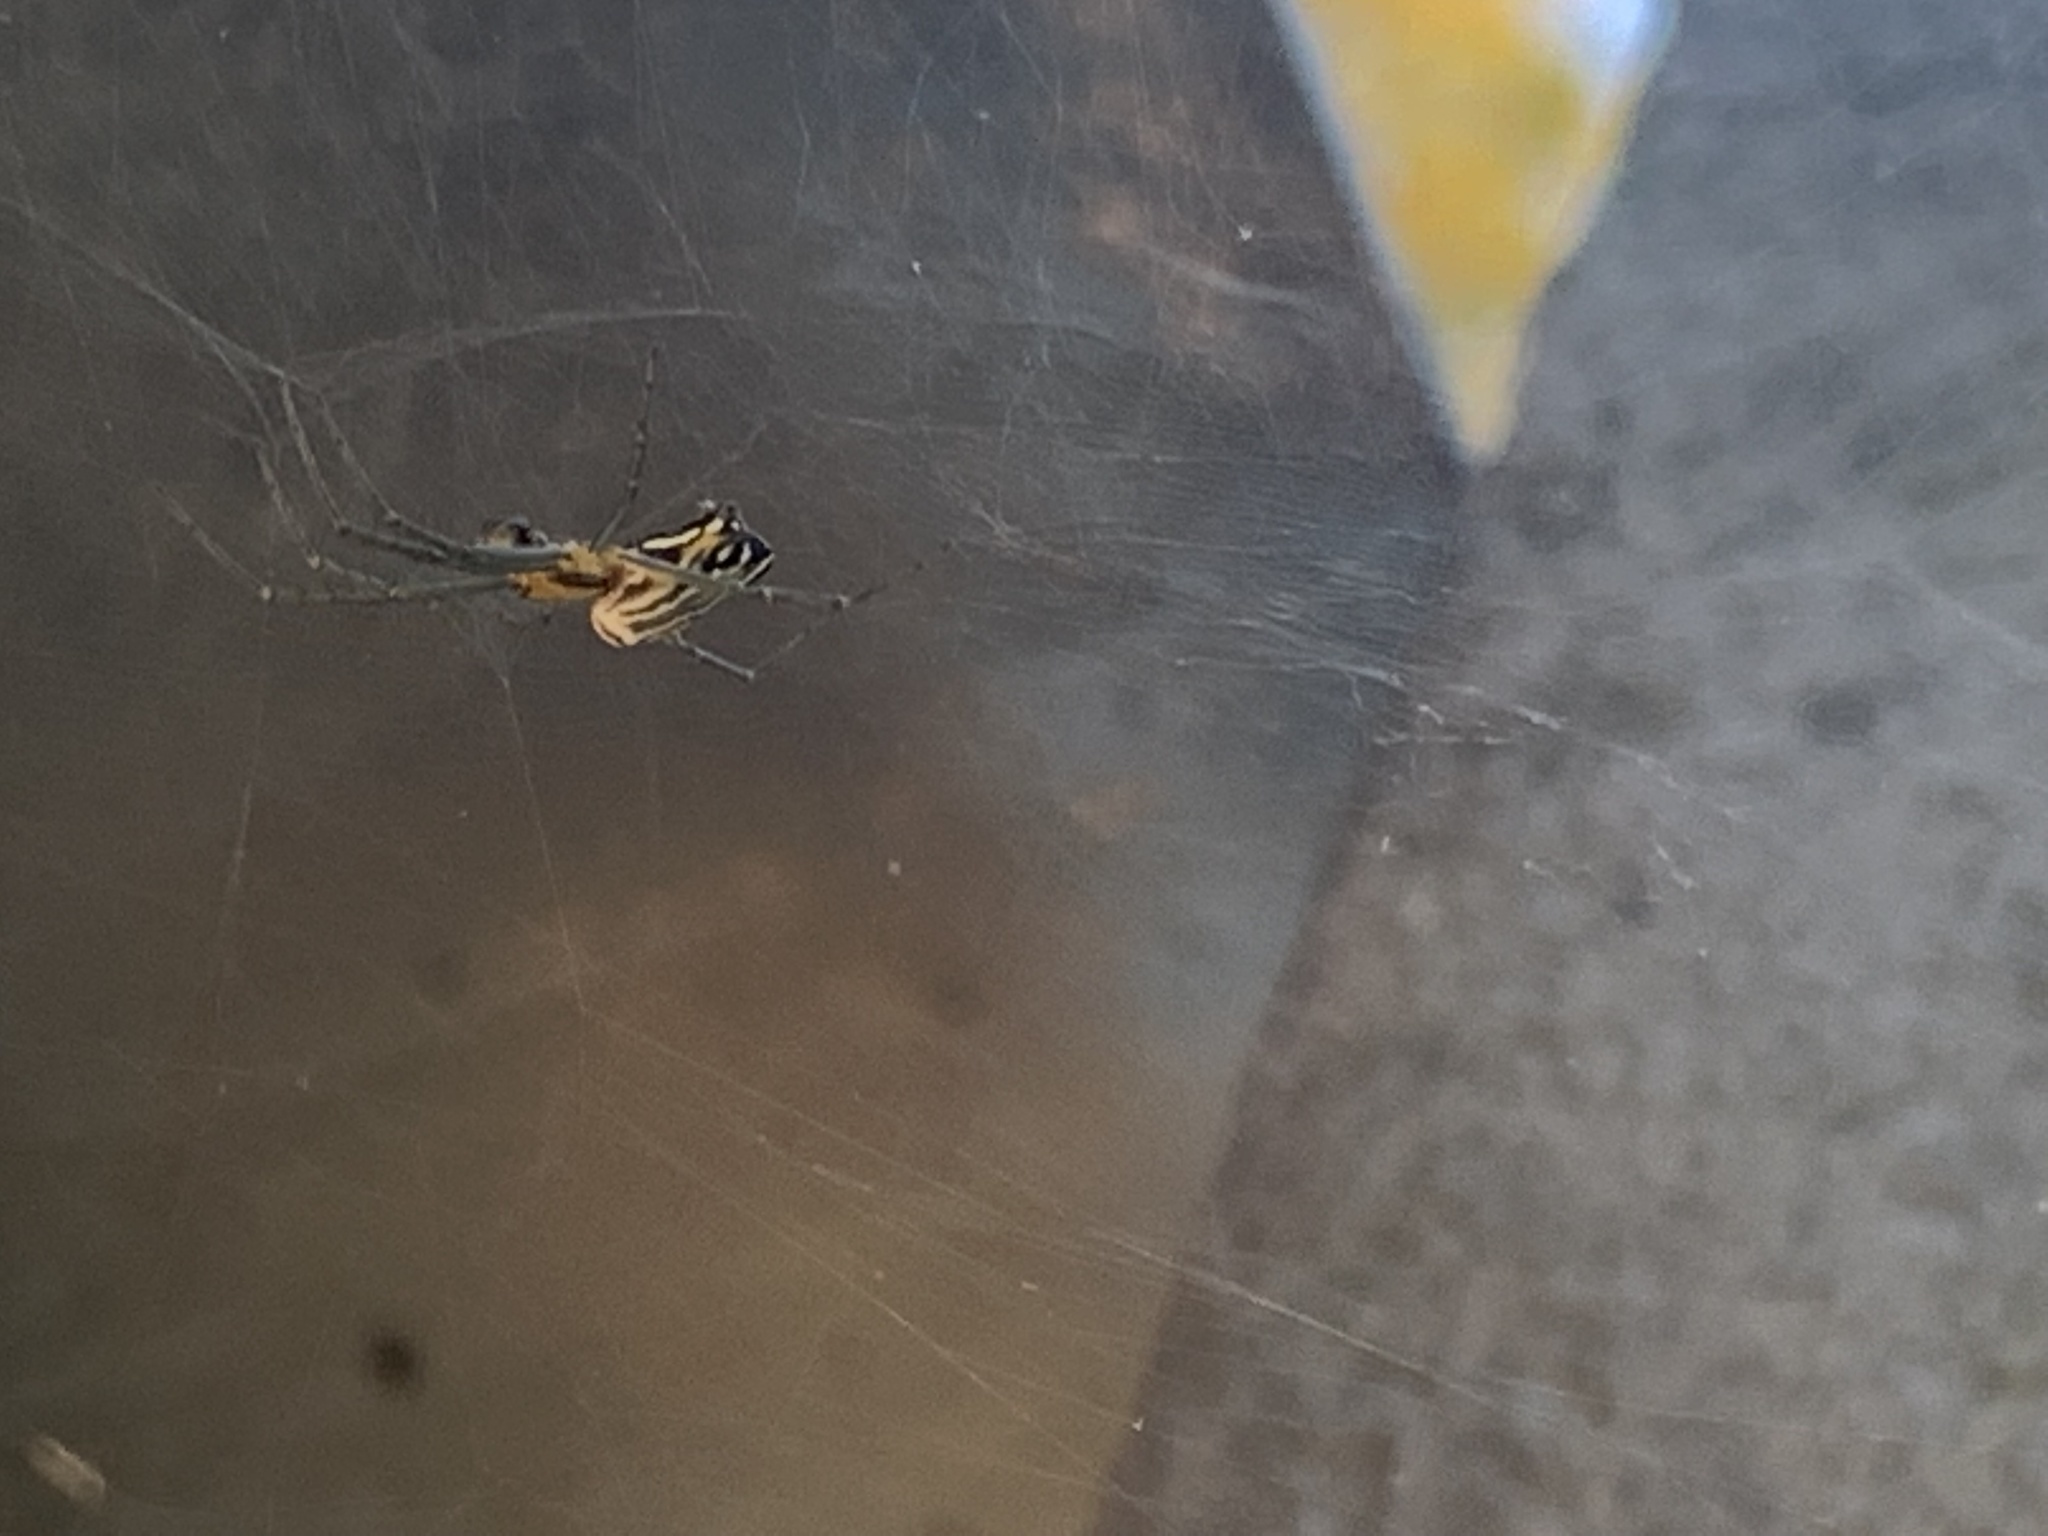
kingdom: Animalia
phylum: Arthropoda
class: Arachnida
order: Araneae
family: Tetragnathidae
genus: Leucauge
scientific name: Leucauge venusta
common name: Longjawed orb weavers
